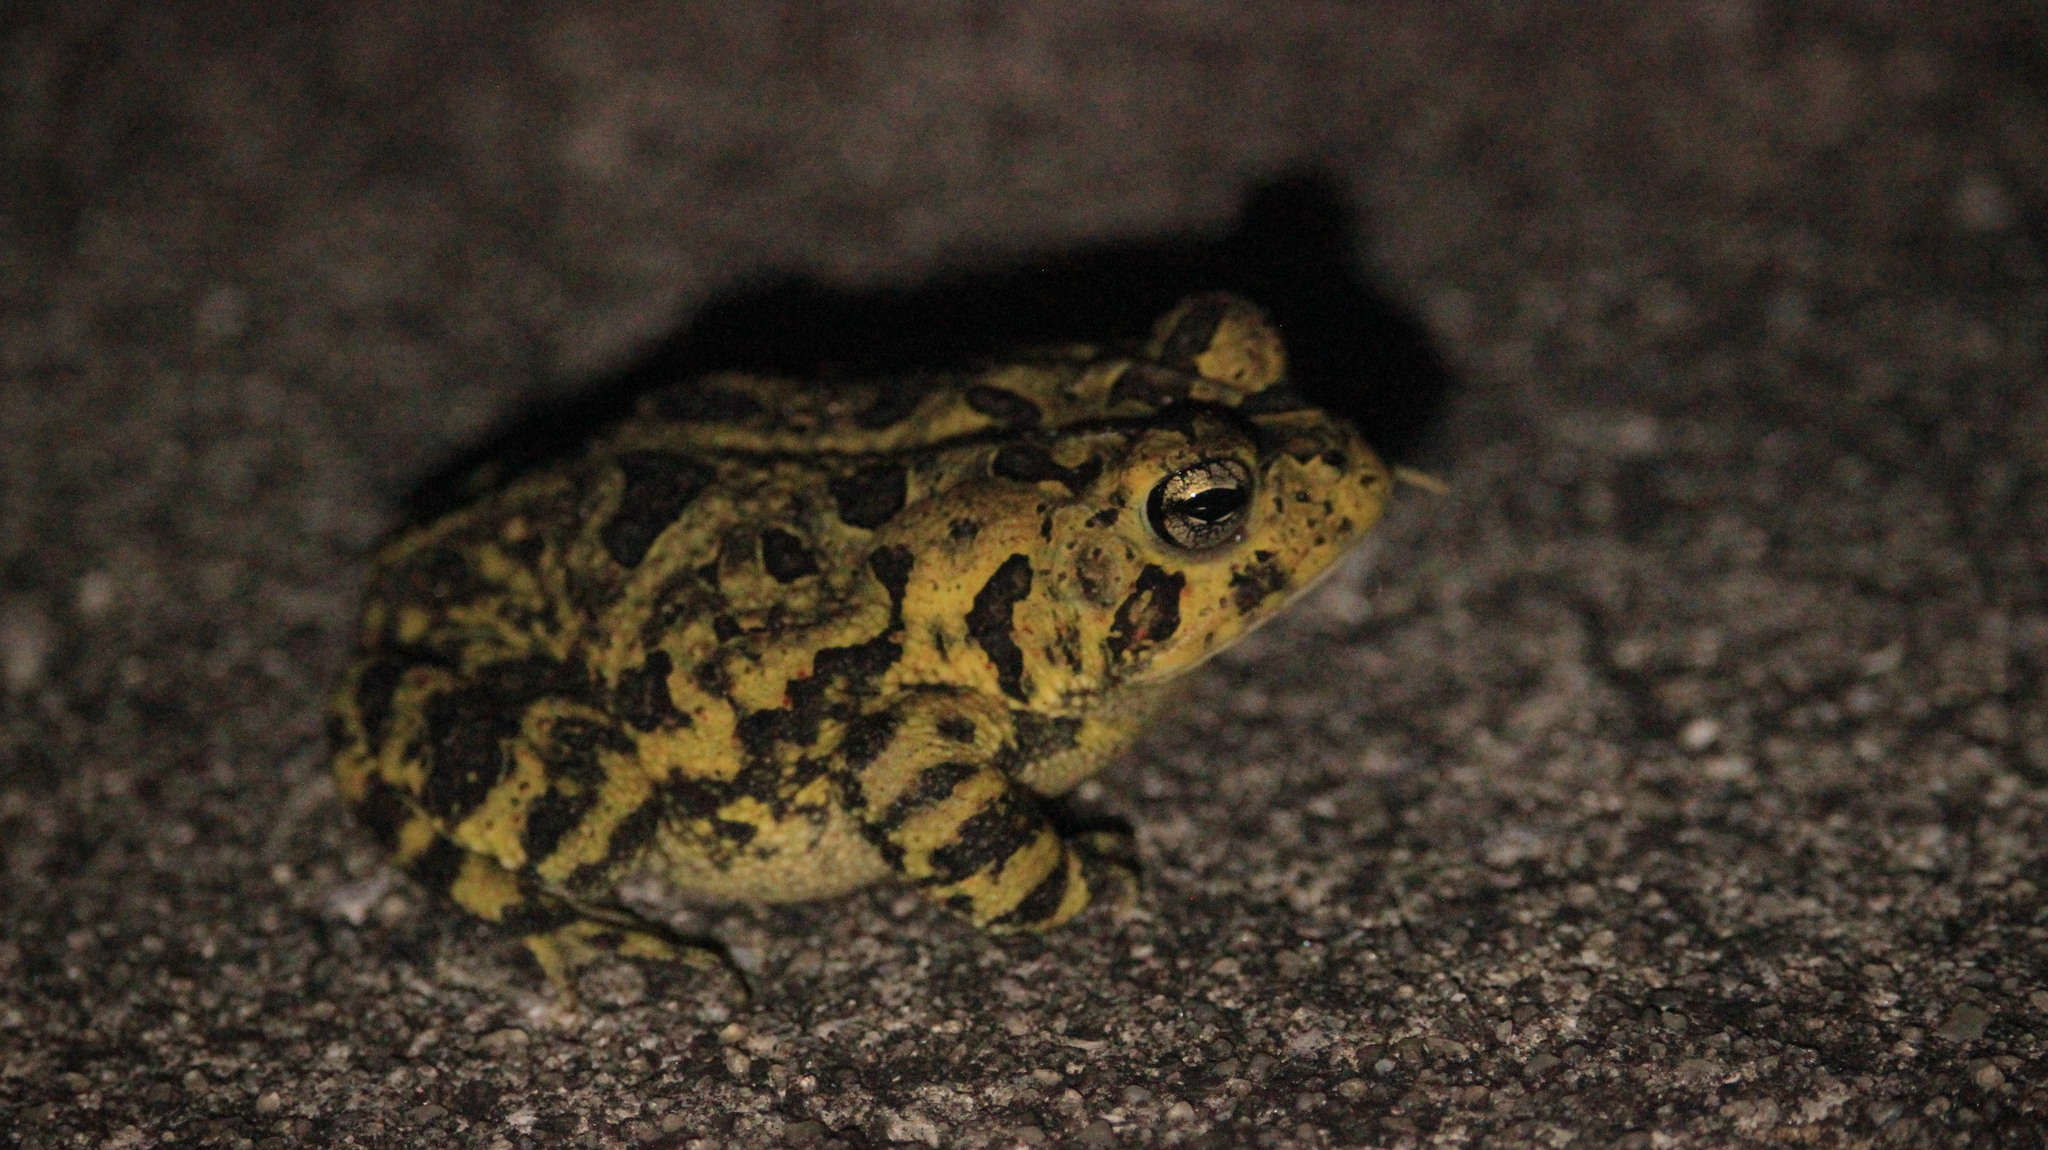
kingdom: Animalia
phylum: Chordata
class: Amphibia
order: Anura
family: Bufonidae
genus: Anaxyrus
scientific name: Anaxyrus terrestris
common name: Southern toad
